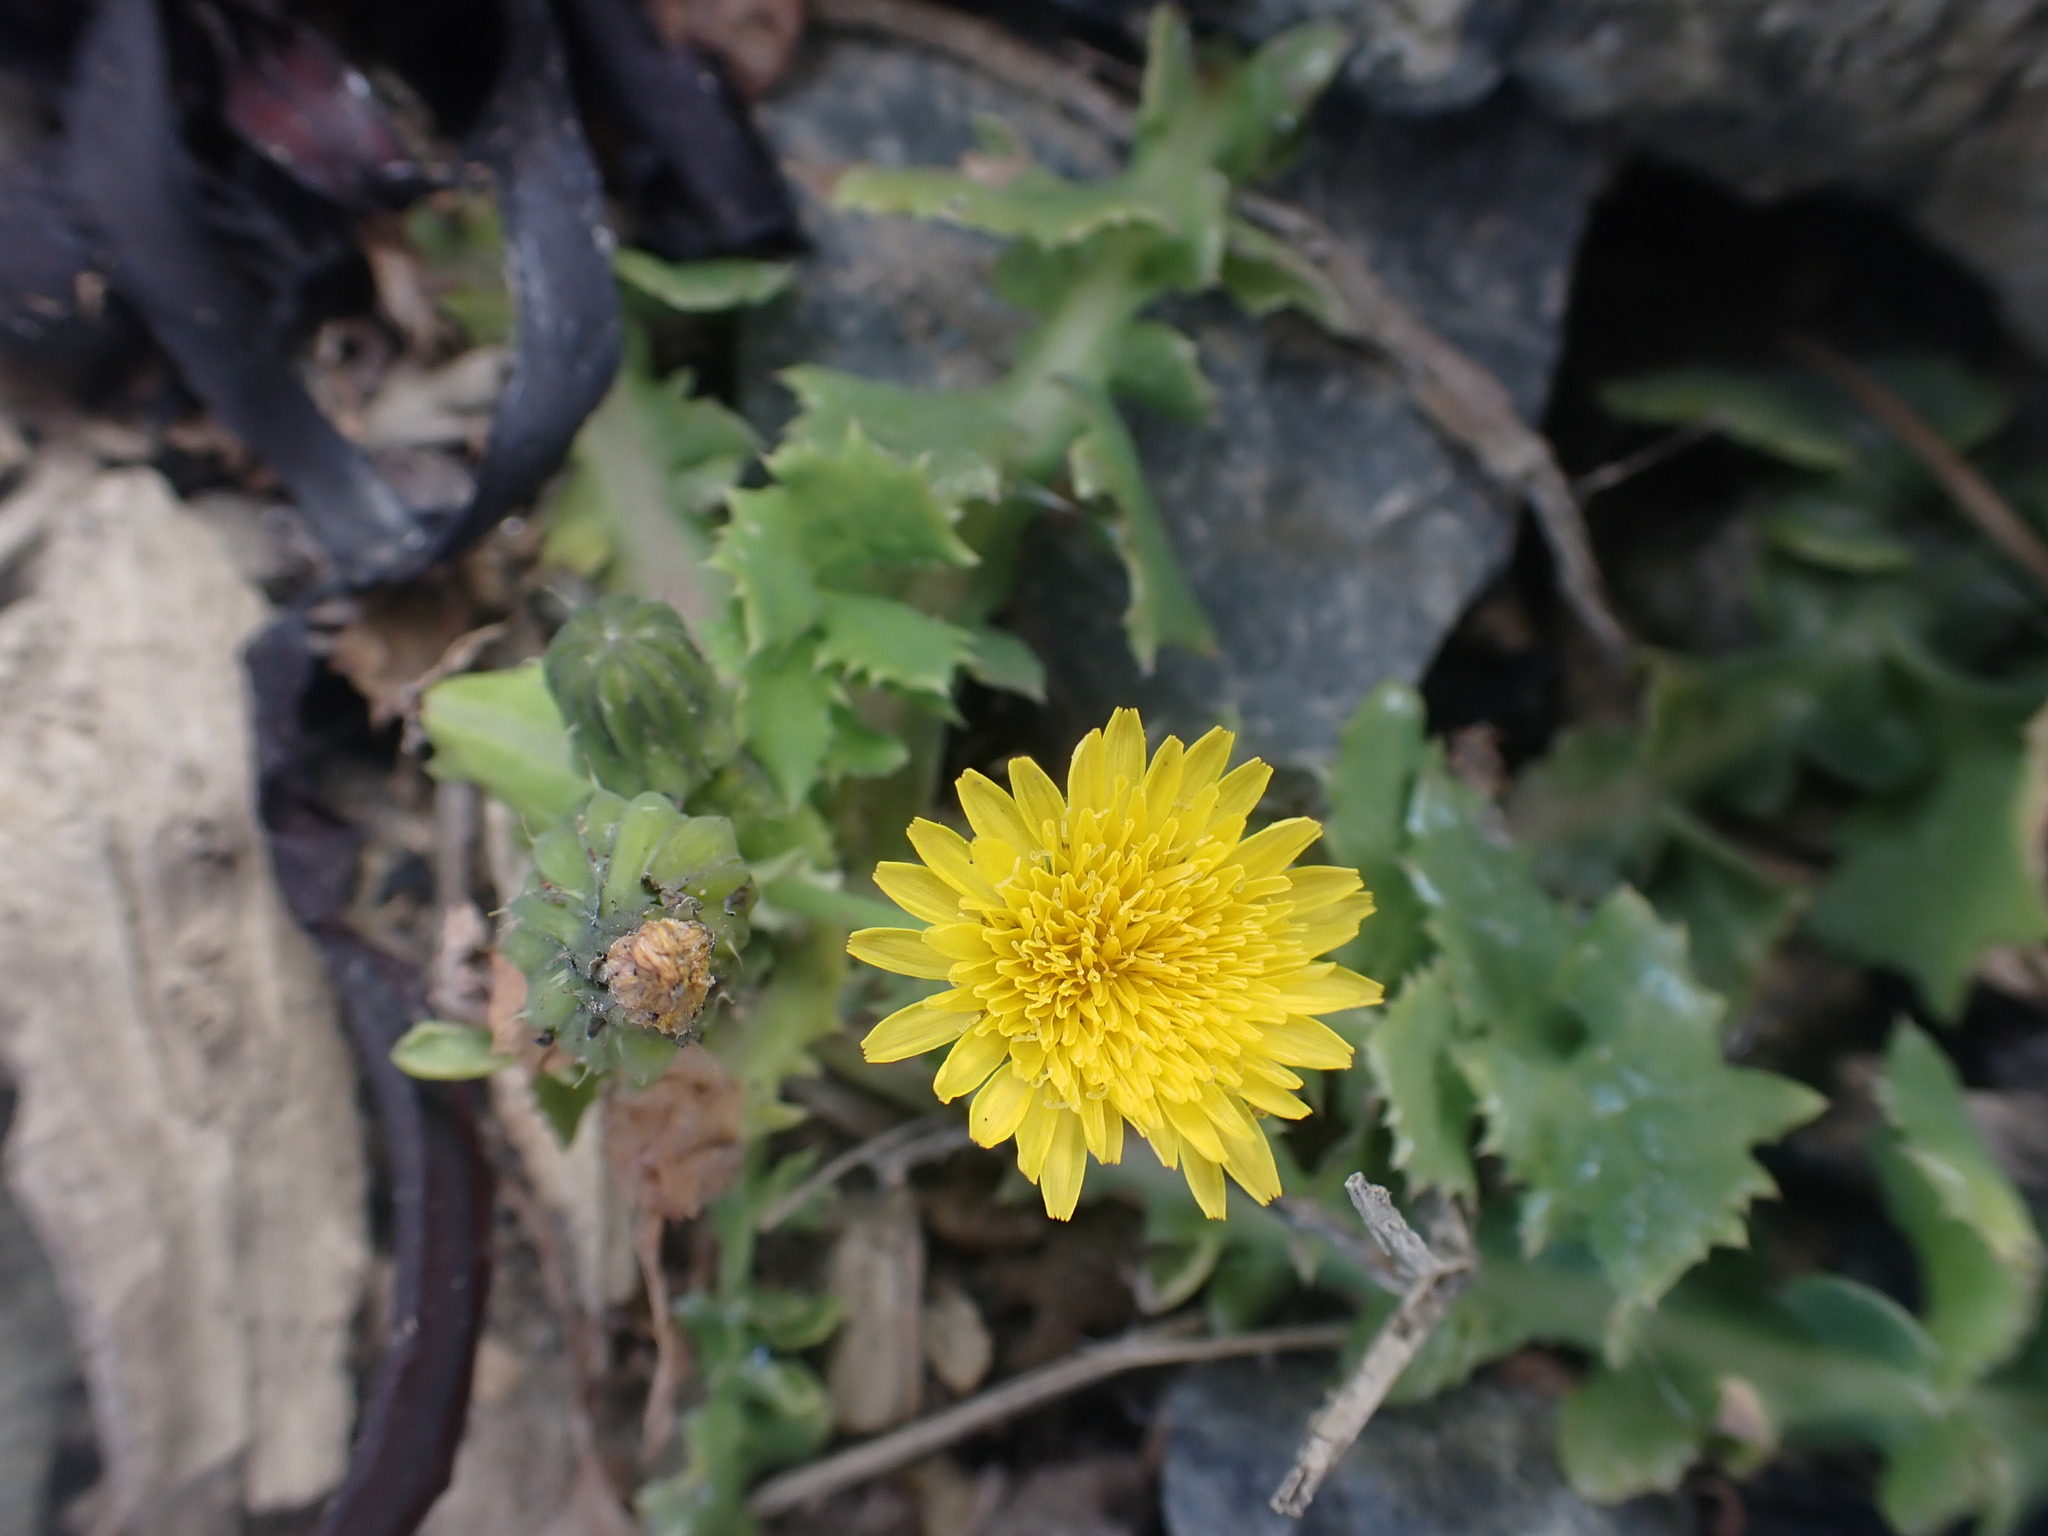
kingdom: Plantae
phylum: Tracheophyta
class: Magnoliopsida
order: Asterales
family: Asteraceae
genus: Sonchus
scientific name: Sonchus asper
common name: Prickly sow-thistle
